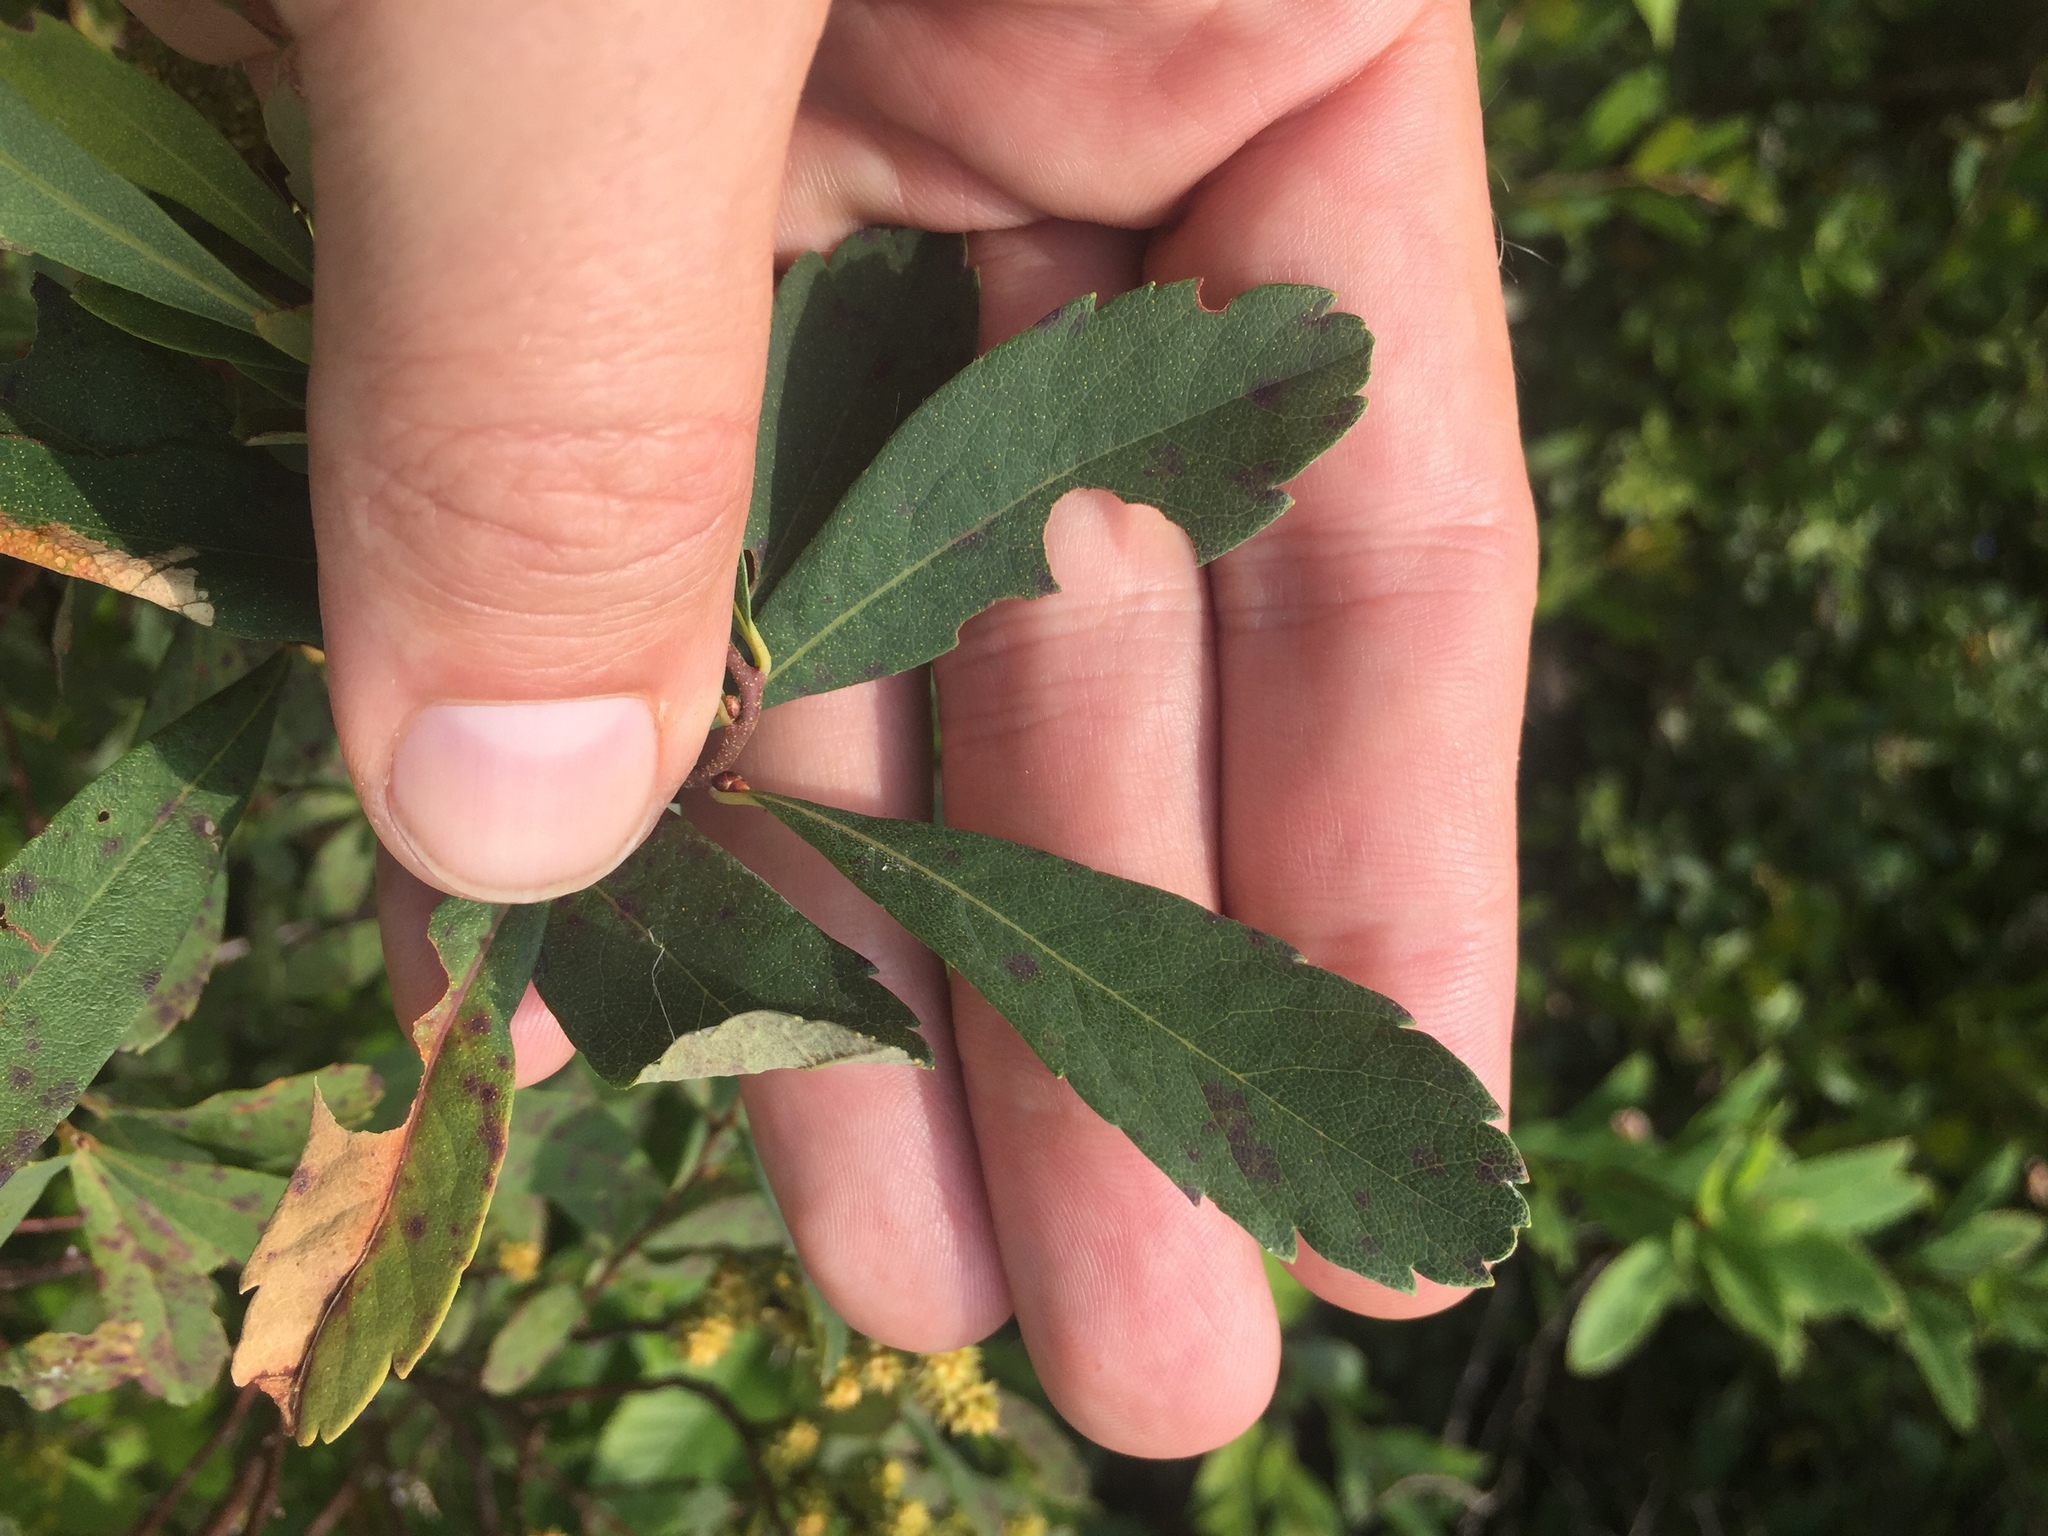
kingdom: Plantae
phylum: Tracheophyta
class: Magnoliopsida
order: Fagales
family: Myricaceae
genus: Myrica
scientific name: Myrica gale
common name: Sweet gale
